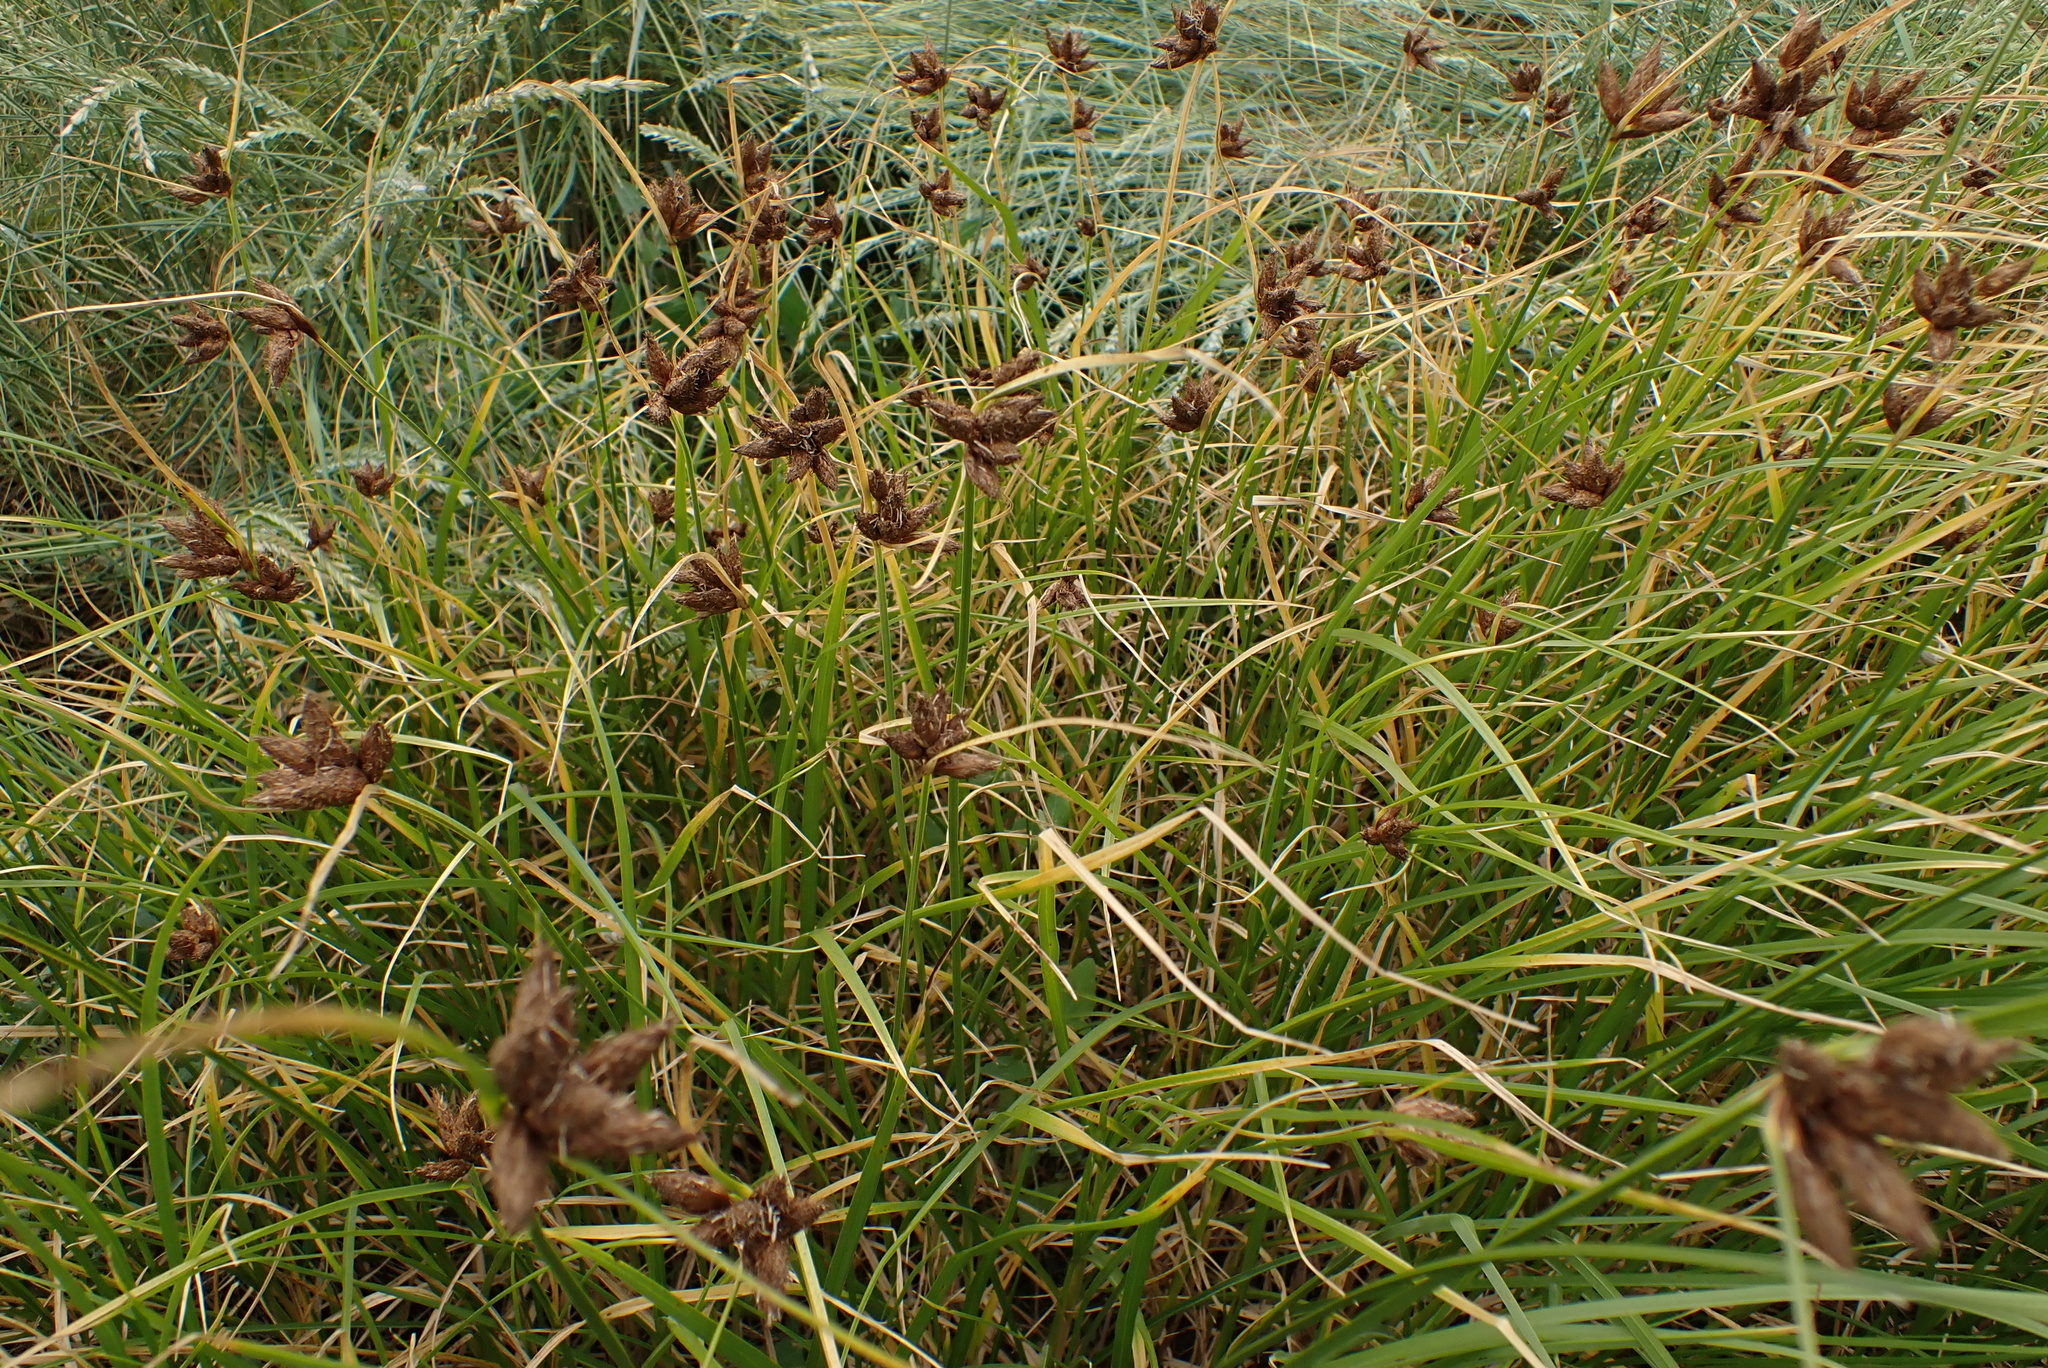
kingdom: Plantae
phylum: Tracheophyta
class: Liliopsida
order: Poales
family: Cyperaceae
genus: Bolboschoenus
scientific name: Bolboschoenus maritimus
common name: Sea club-rush
